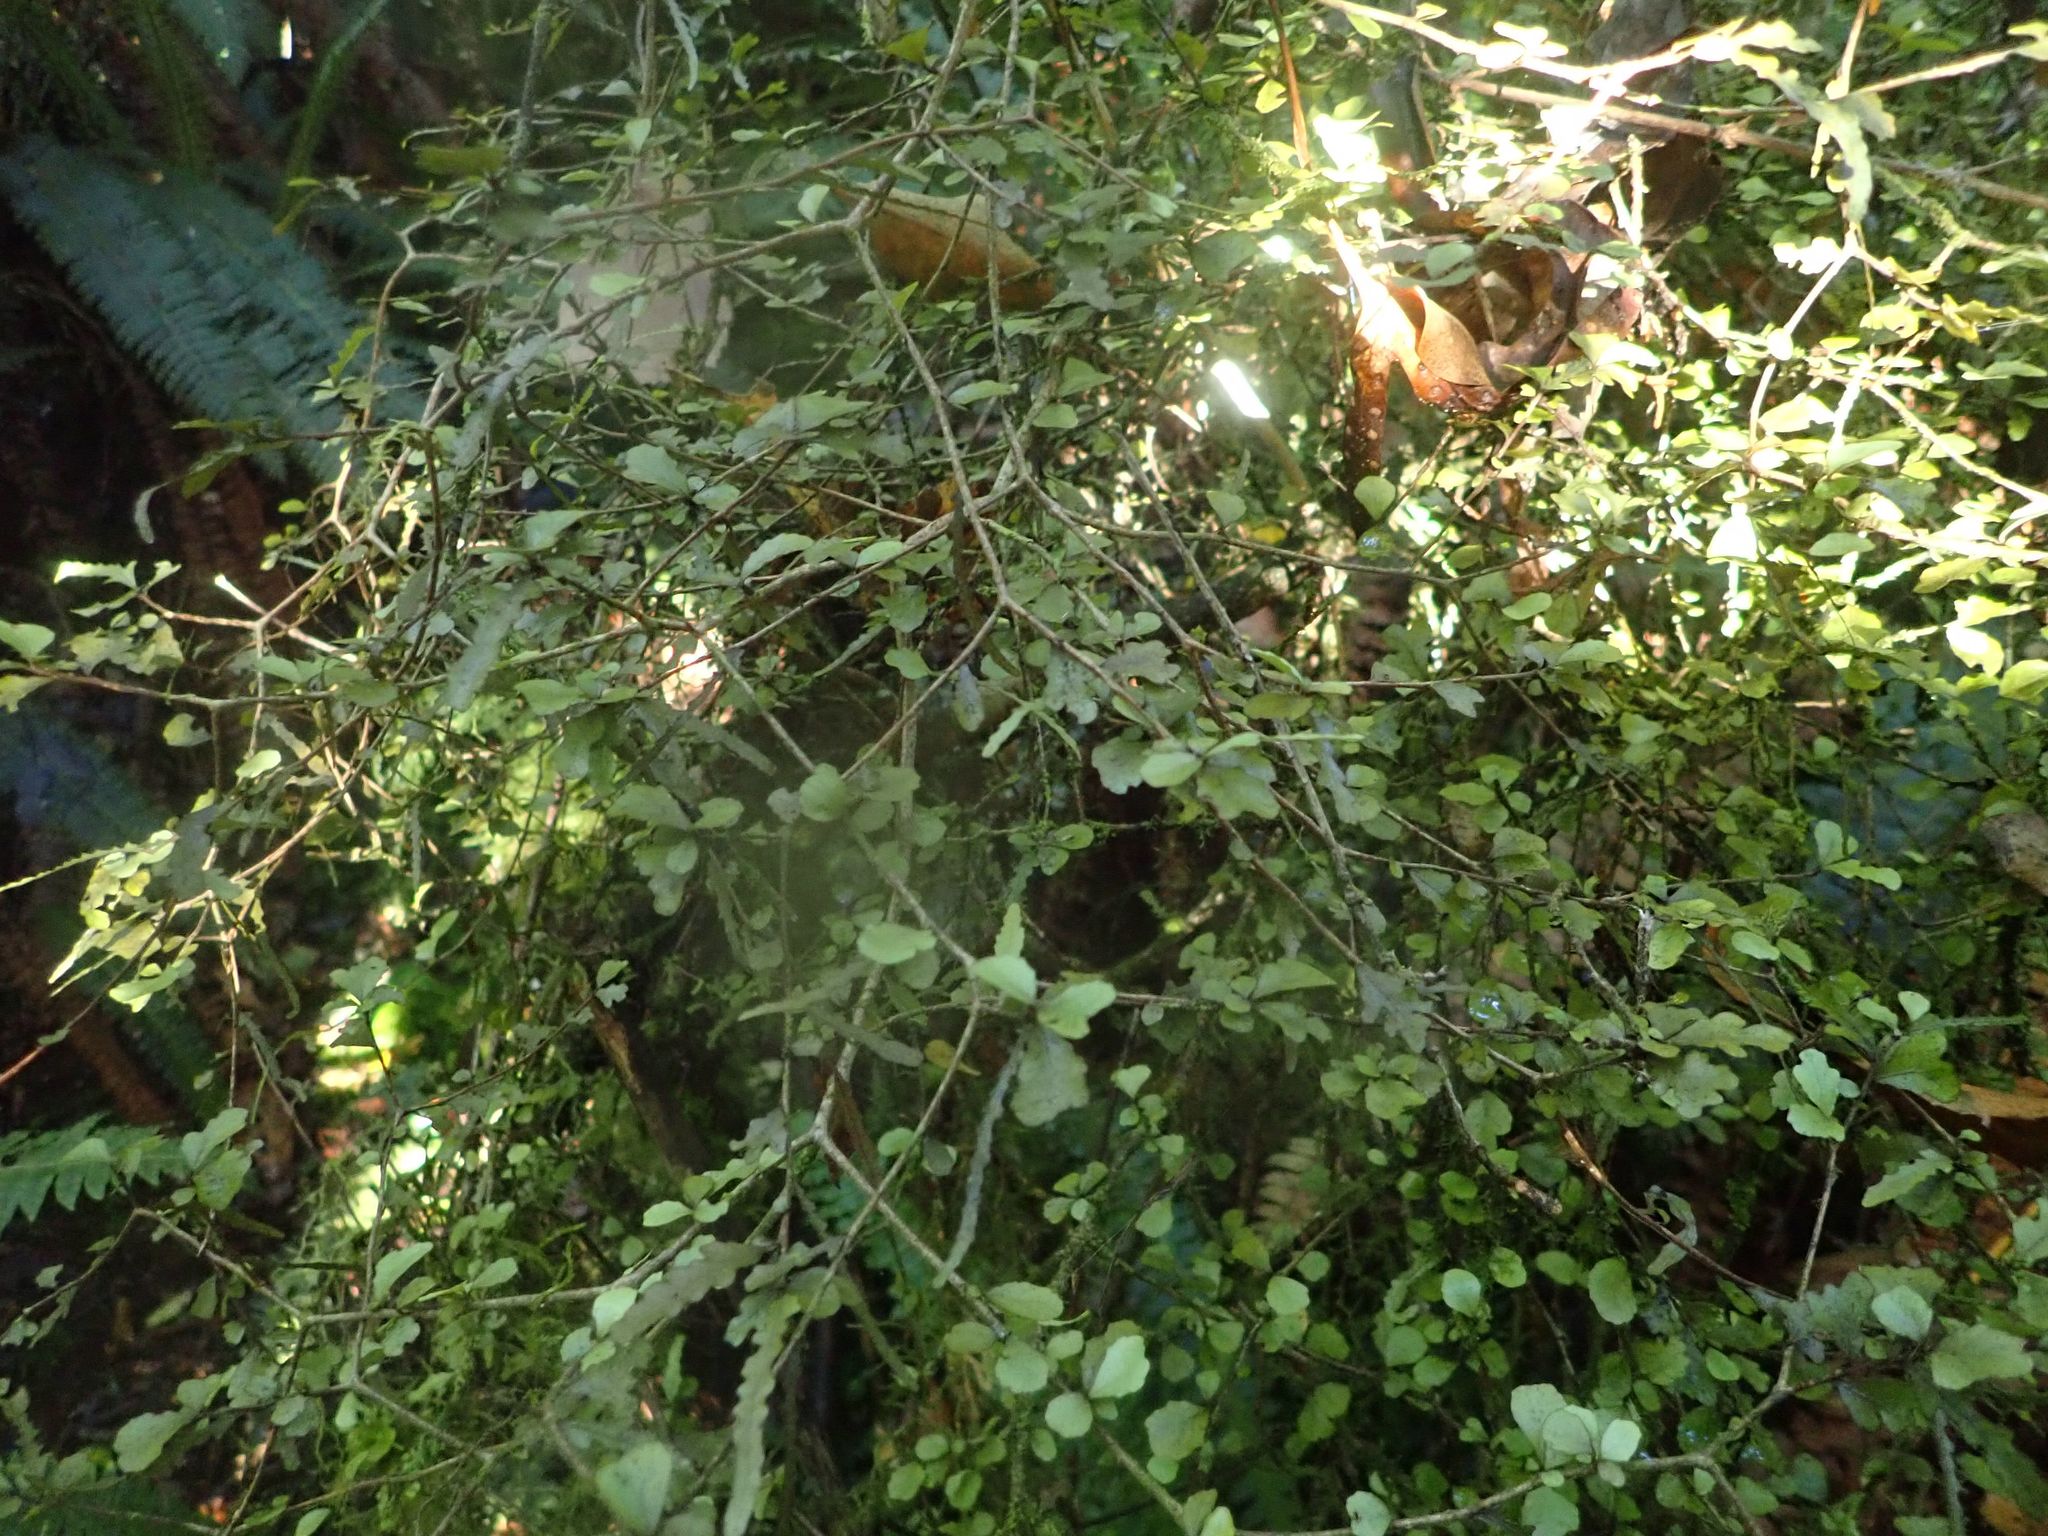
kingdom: Plantae
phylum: Tracheophyta
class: Magnoliopsida
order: Oxalidales
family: Elaeocarpaceae
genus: Elaeocarpus
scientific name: Elaeocarpus hookerianus
